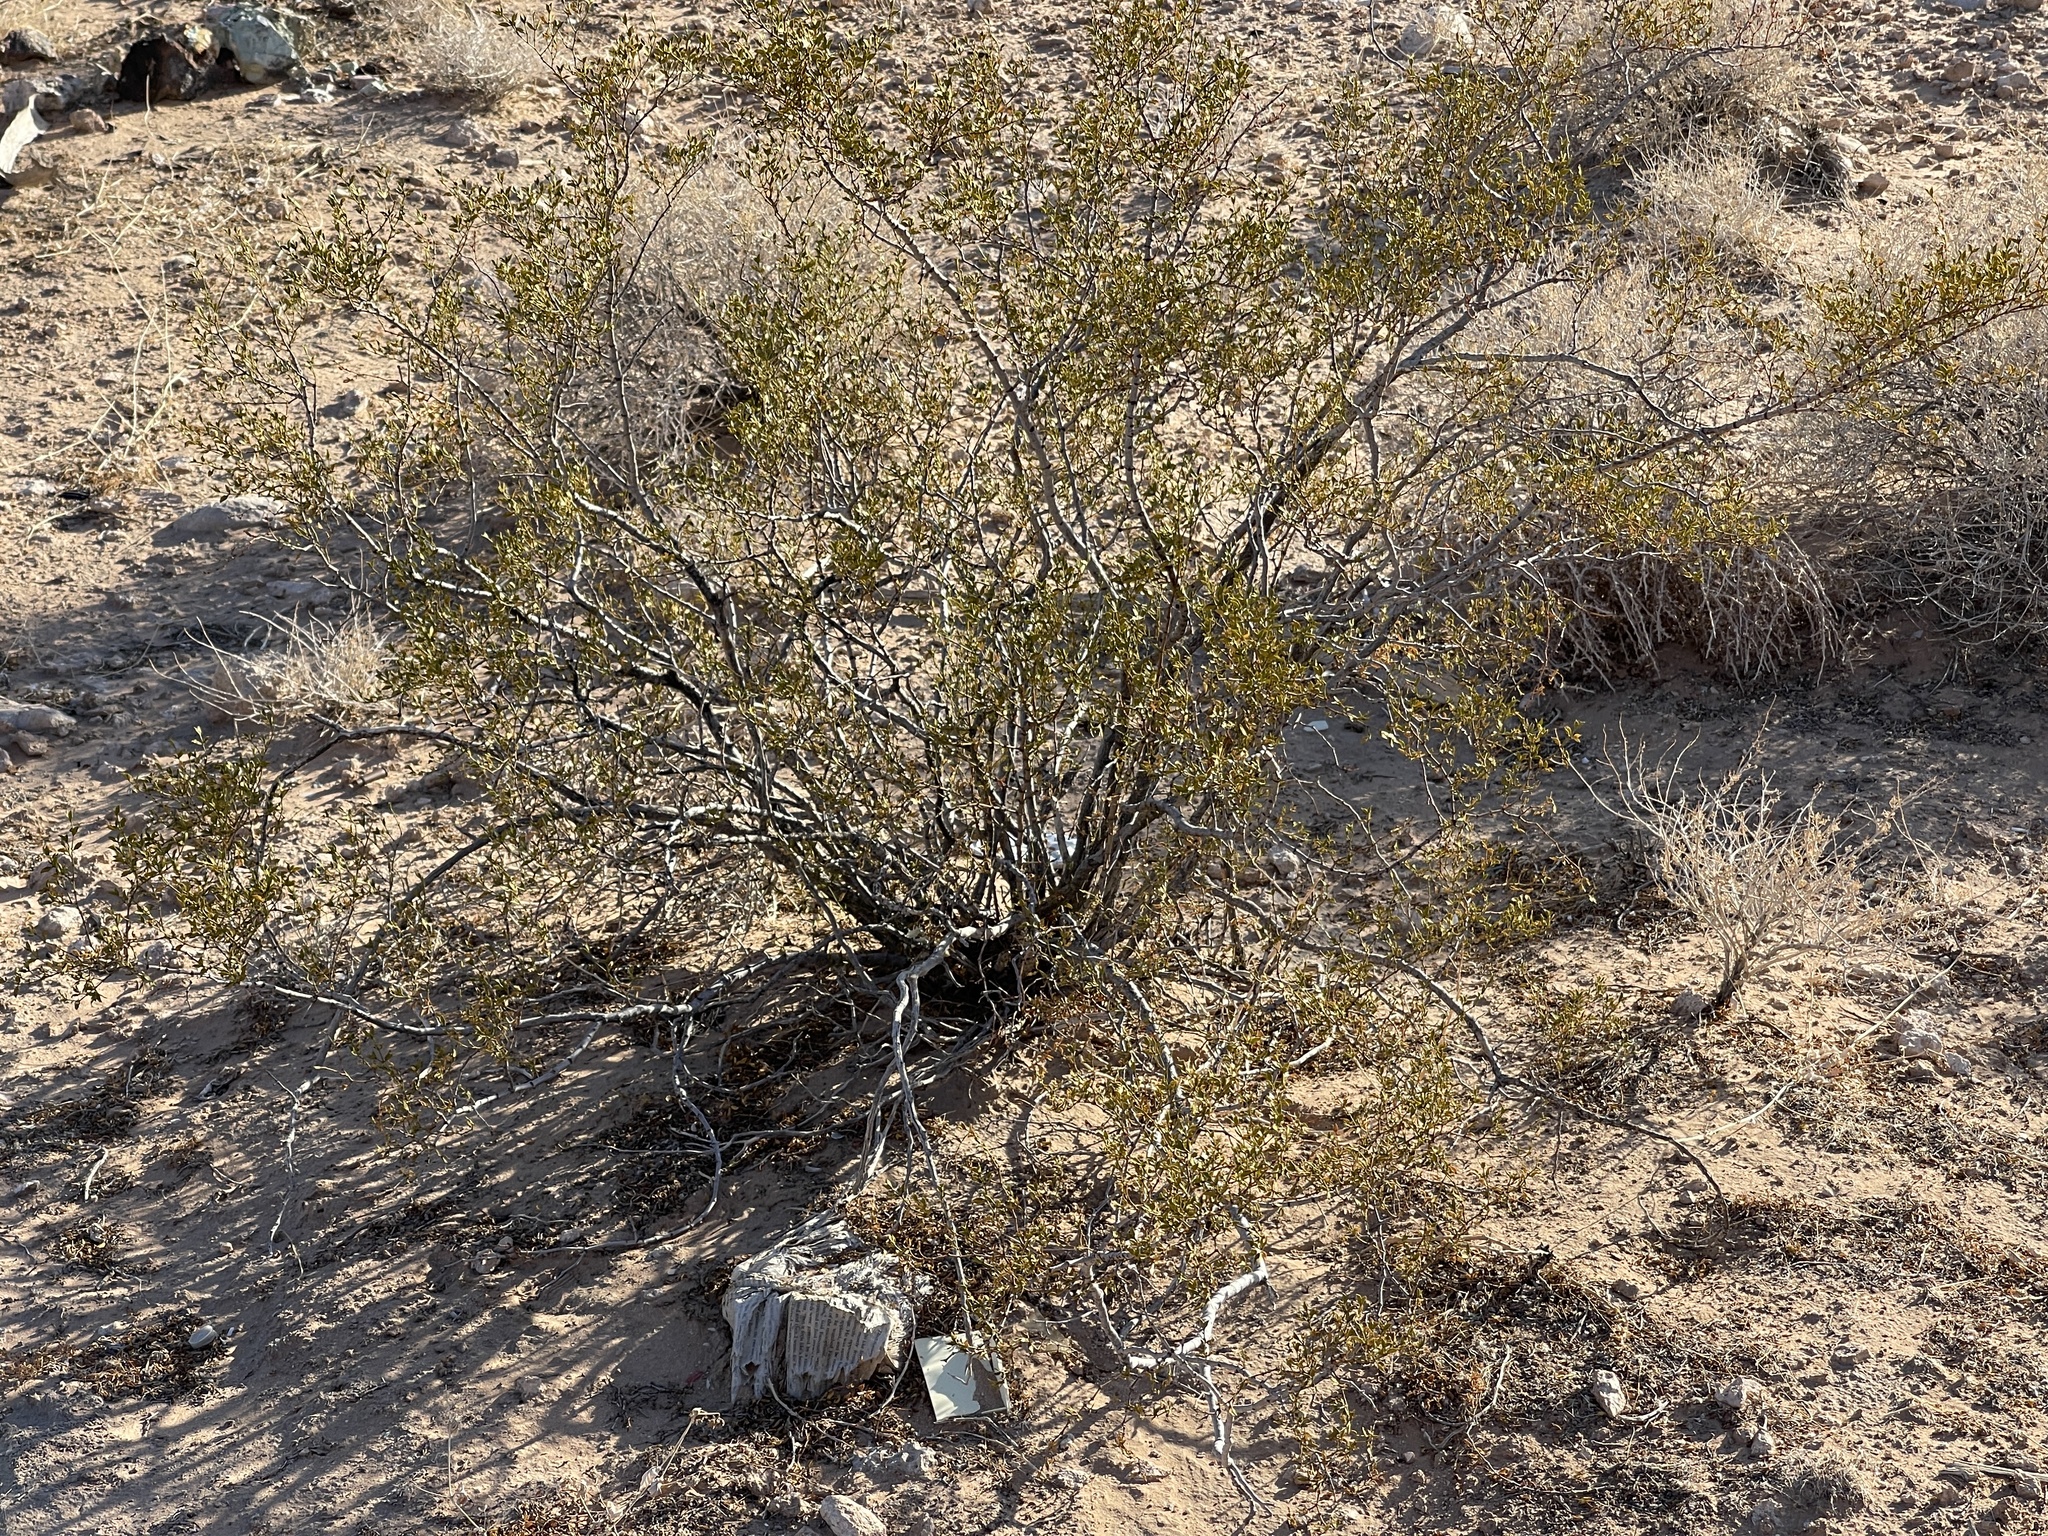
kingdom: Plantae
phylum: Tracheophyta
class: Magnoliopsida
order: Zygophyllales
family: Zygophyllaceae
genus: Larrea
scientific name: Larrea tridentata
